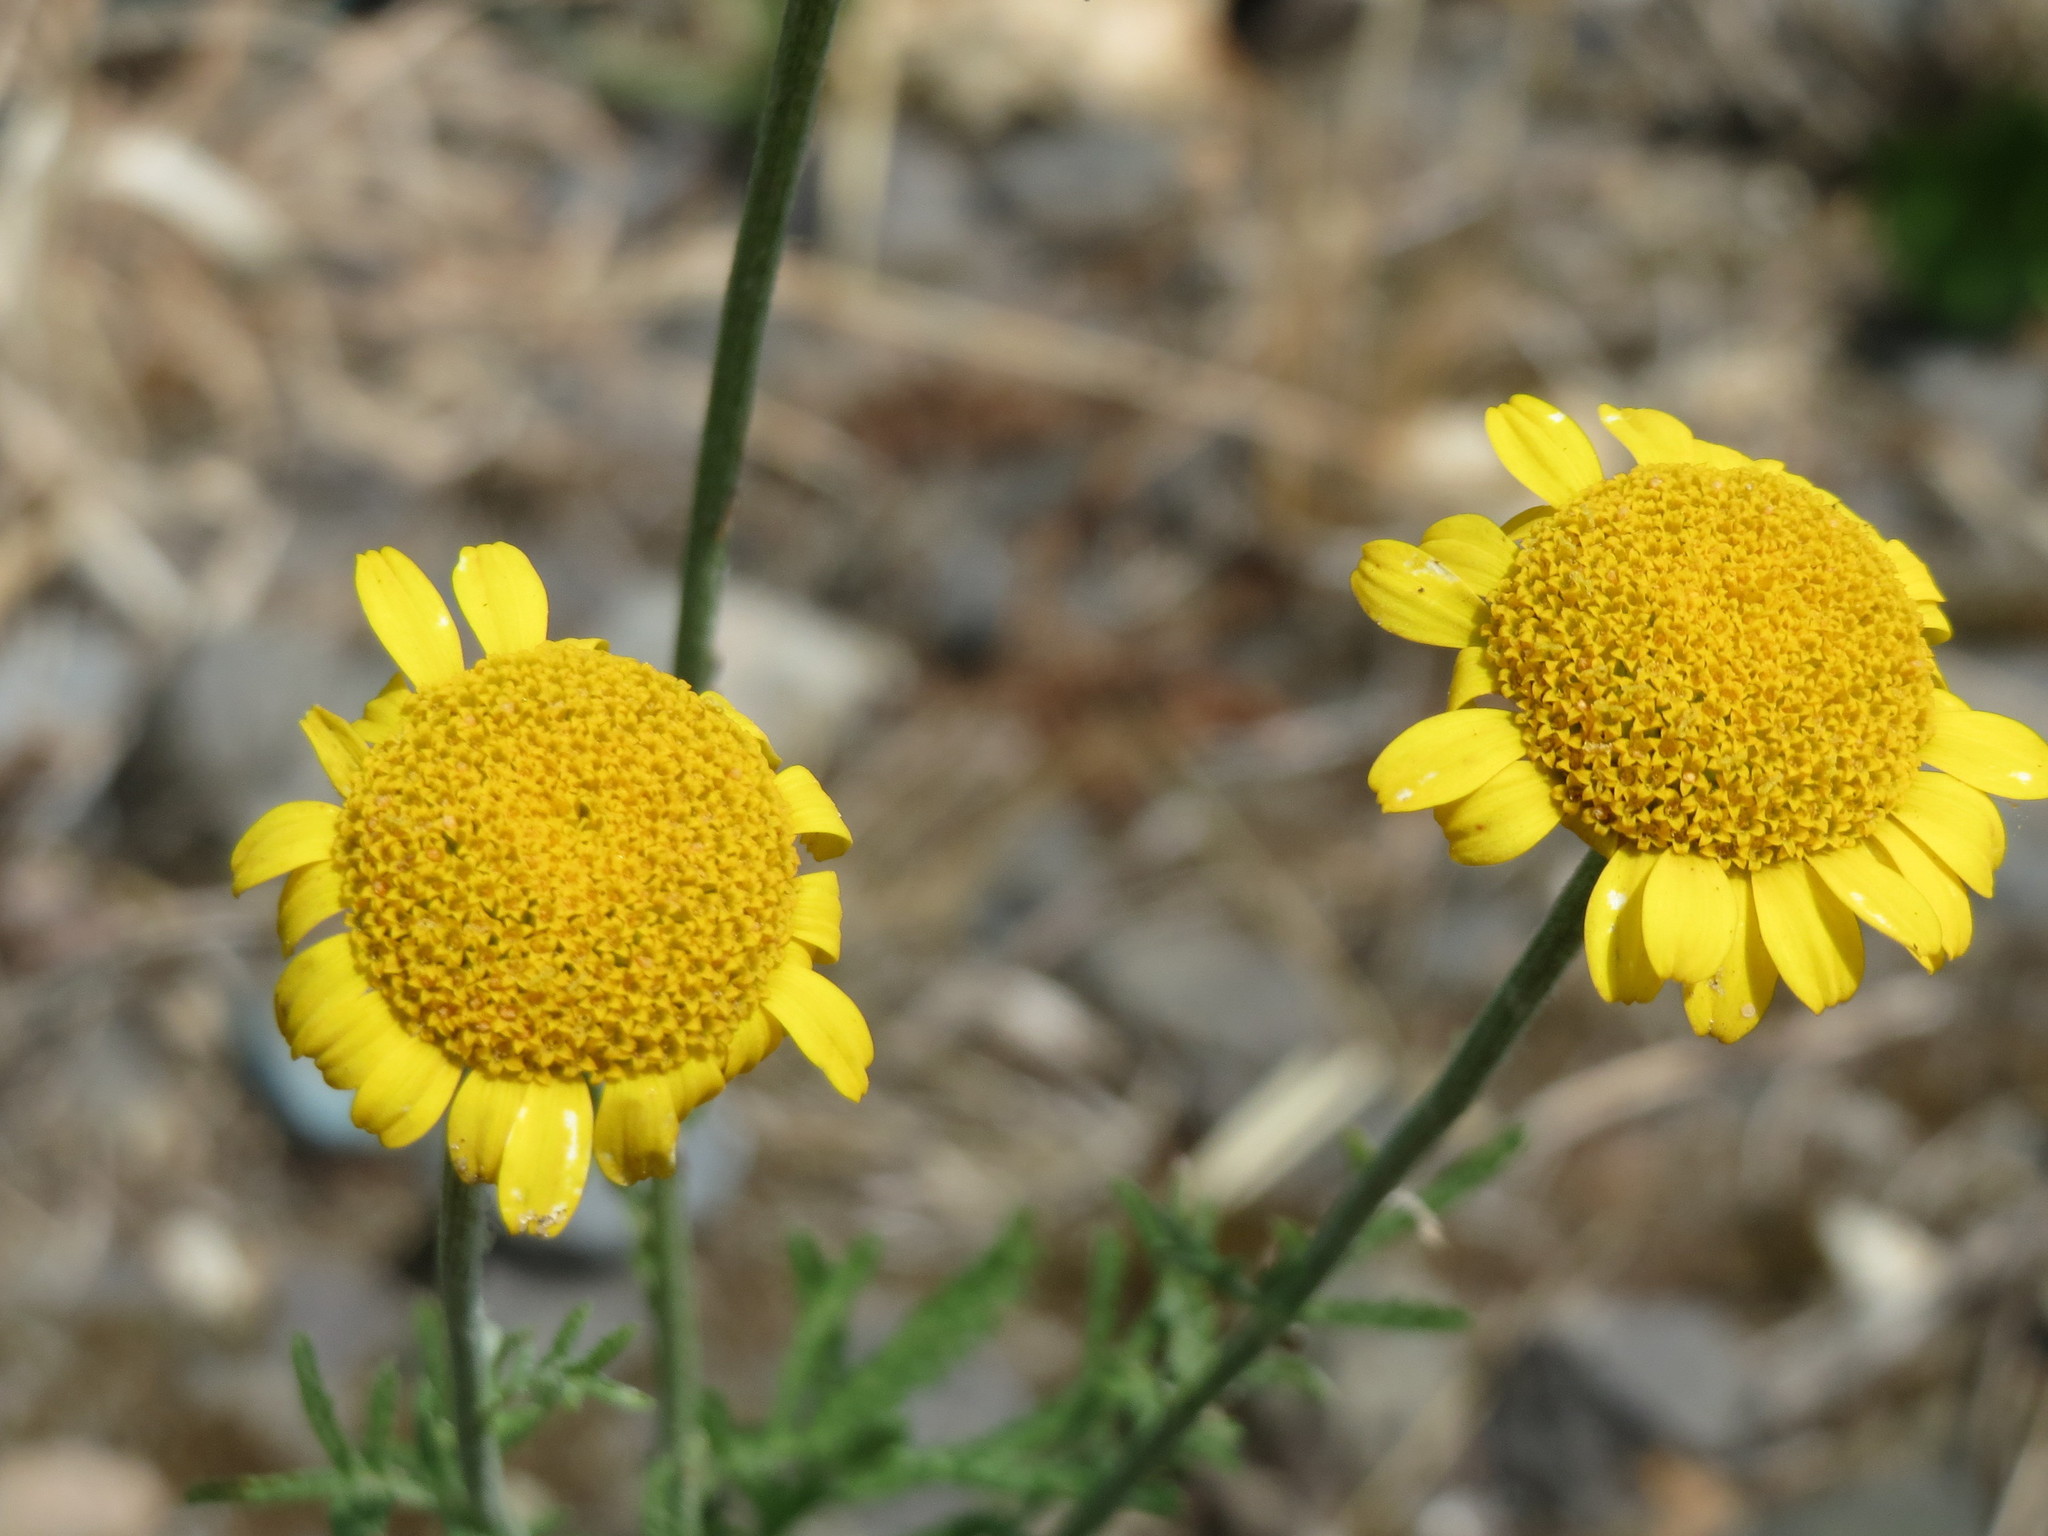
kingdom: Plantae
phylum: Tracheophyta
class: Magnoliopsida
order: Asterales
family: Asteraceae
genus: Cota
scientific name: Cota tinctoria
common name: Golden chamomile
